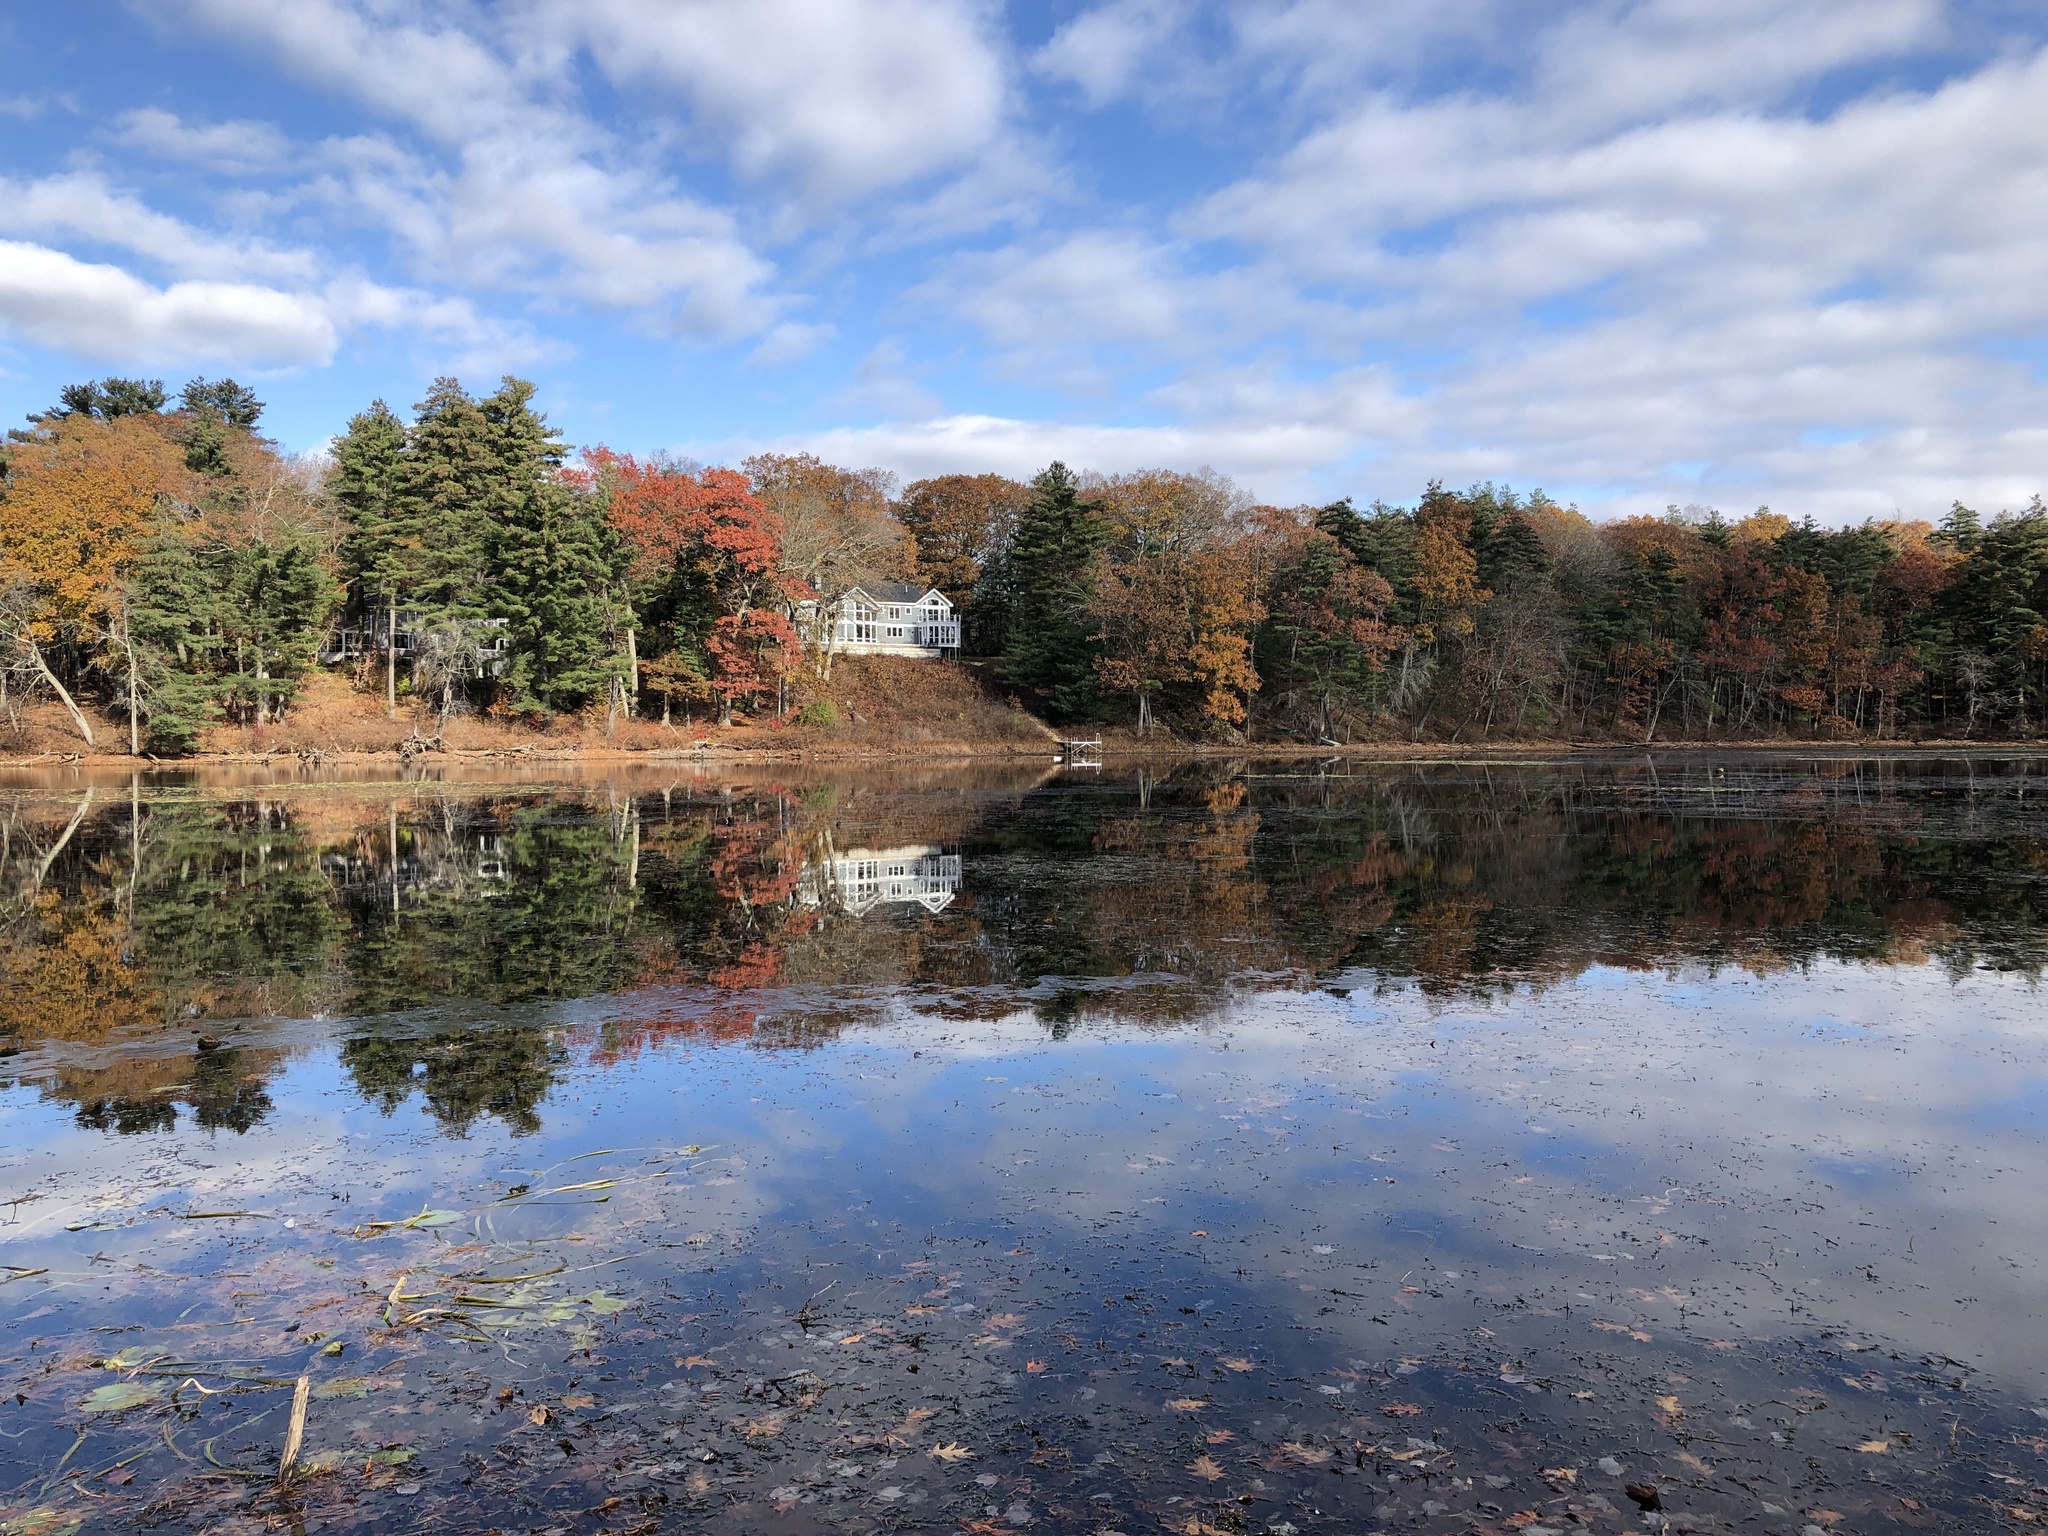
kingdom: Animalia
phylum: Chordata
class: Aves
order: Anseriformes
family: Anatidae
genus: Cygnus
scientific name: Cygnus olor
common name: Mute swan
